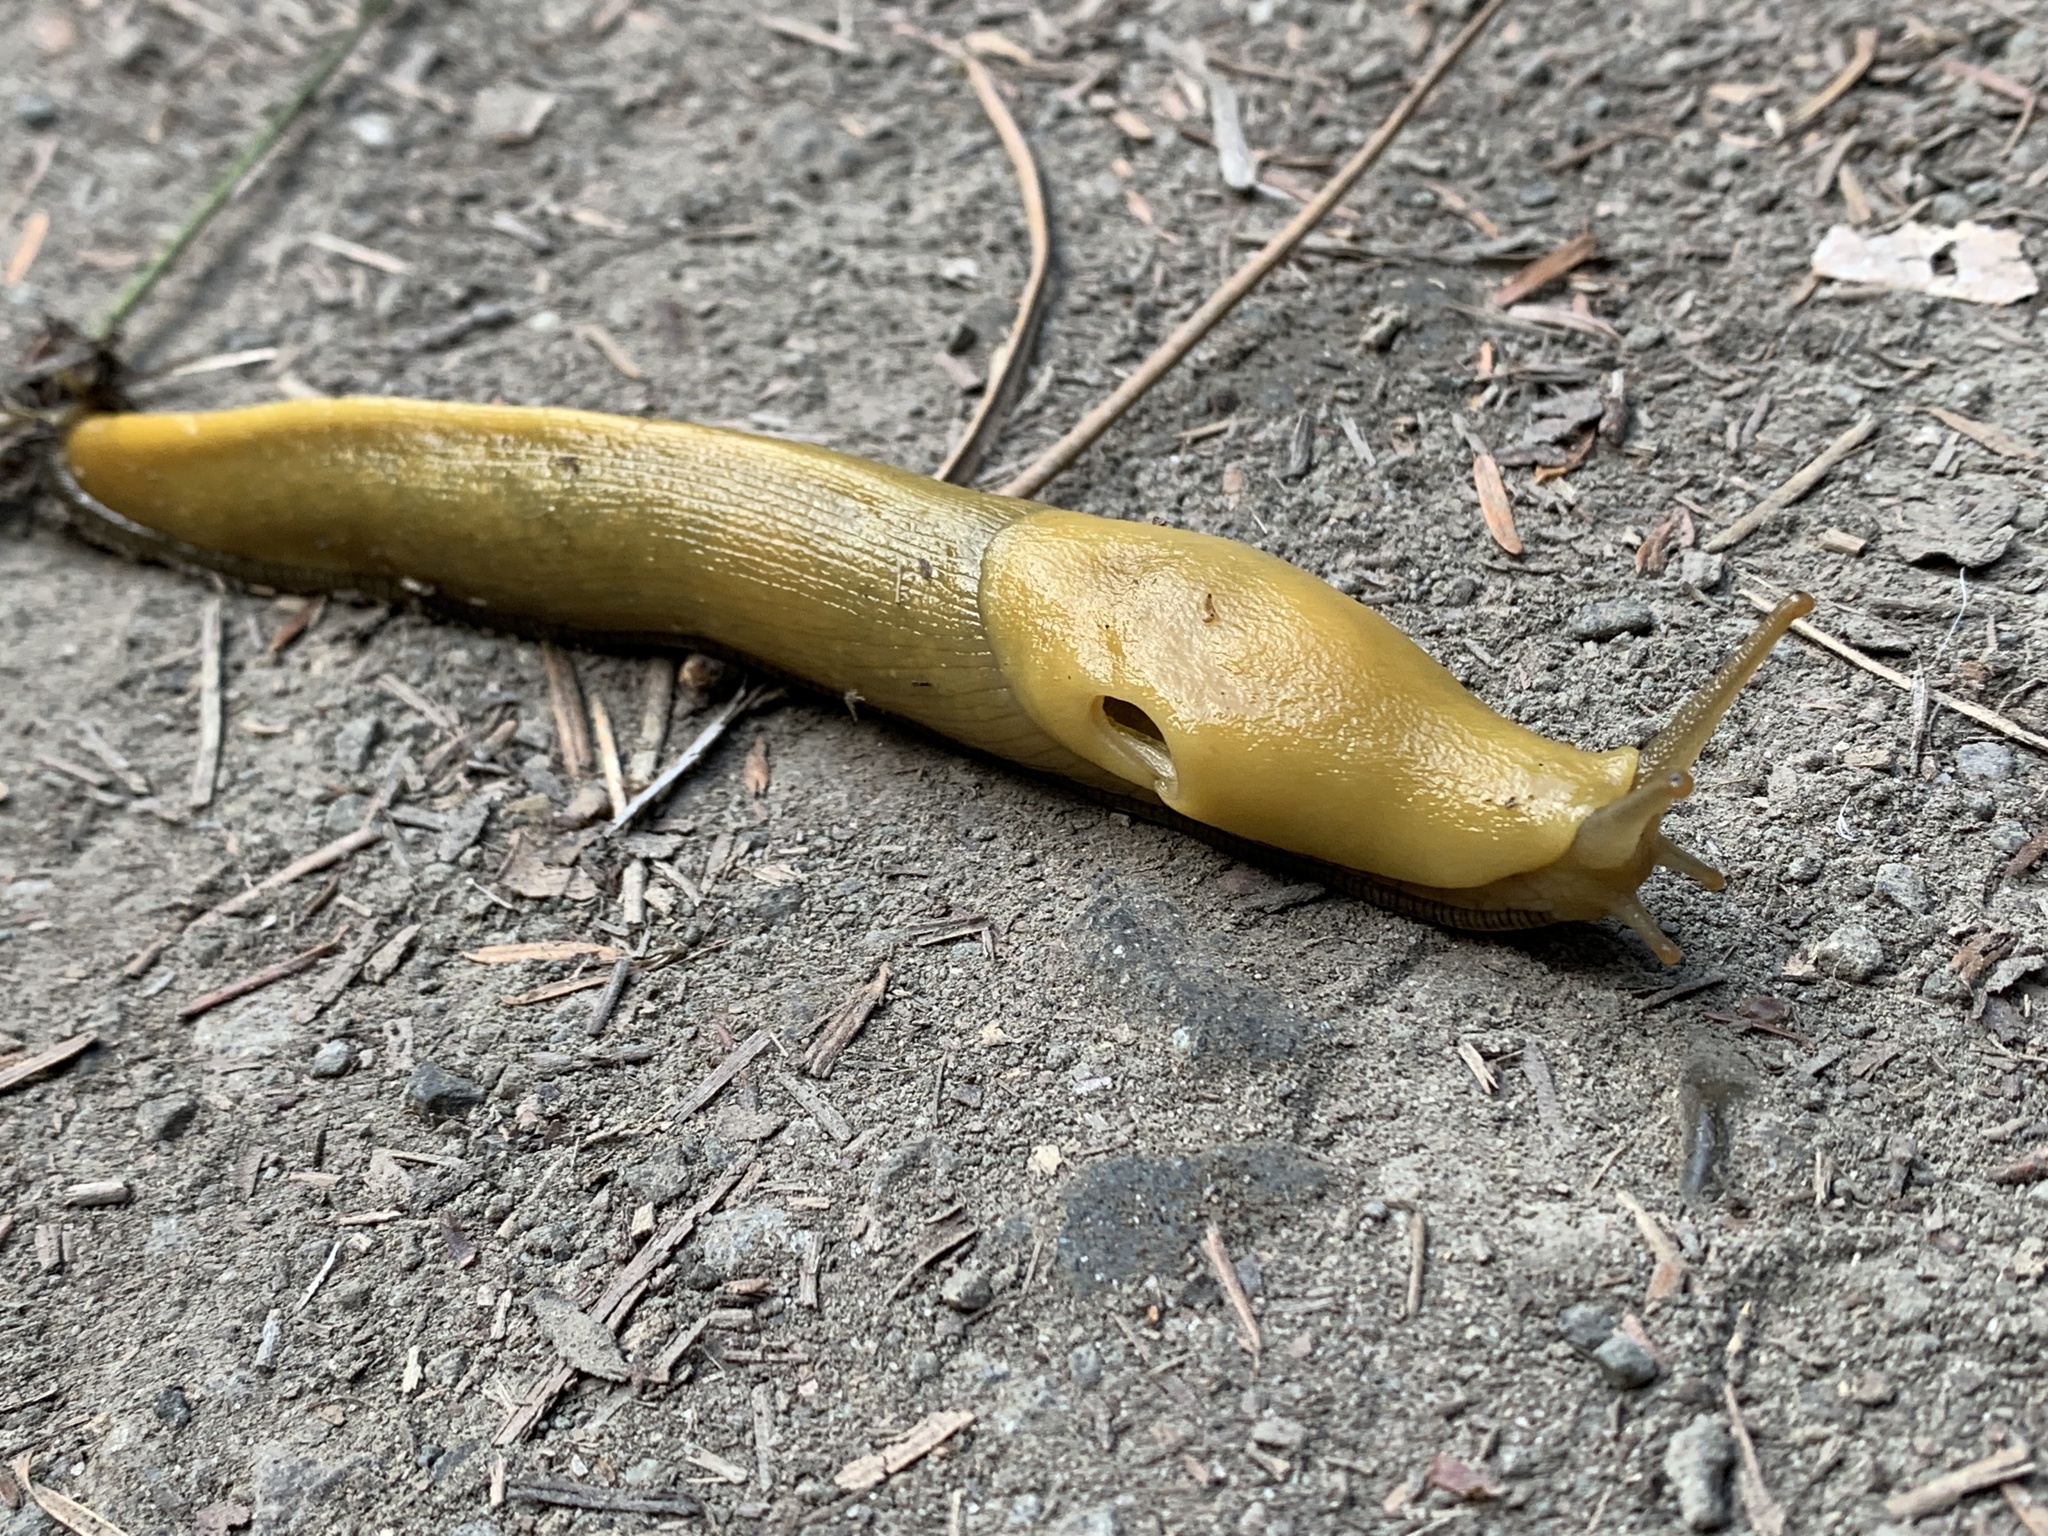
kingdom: Animalia
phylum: Mollusca
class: Gastropoda
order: Stylommatophora
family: Ariolimacidae
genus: Ariolimax
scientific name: Ariolimax buttoni
